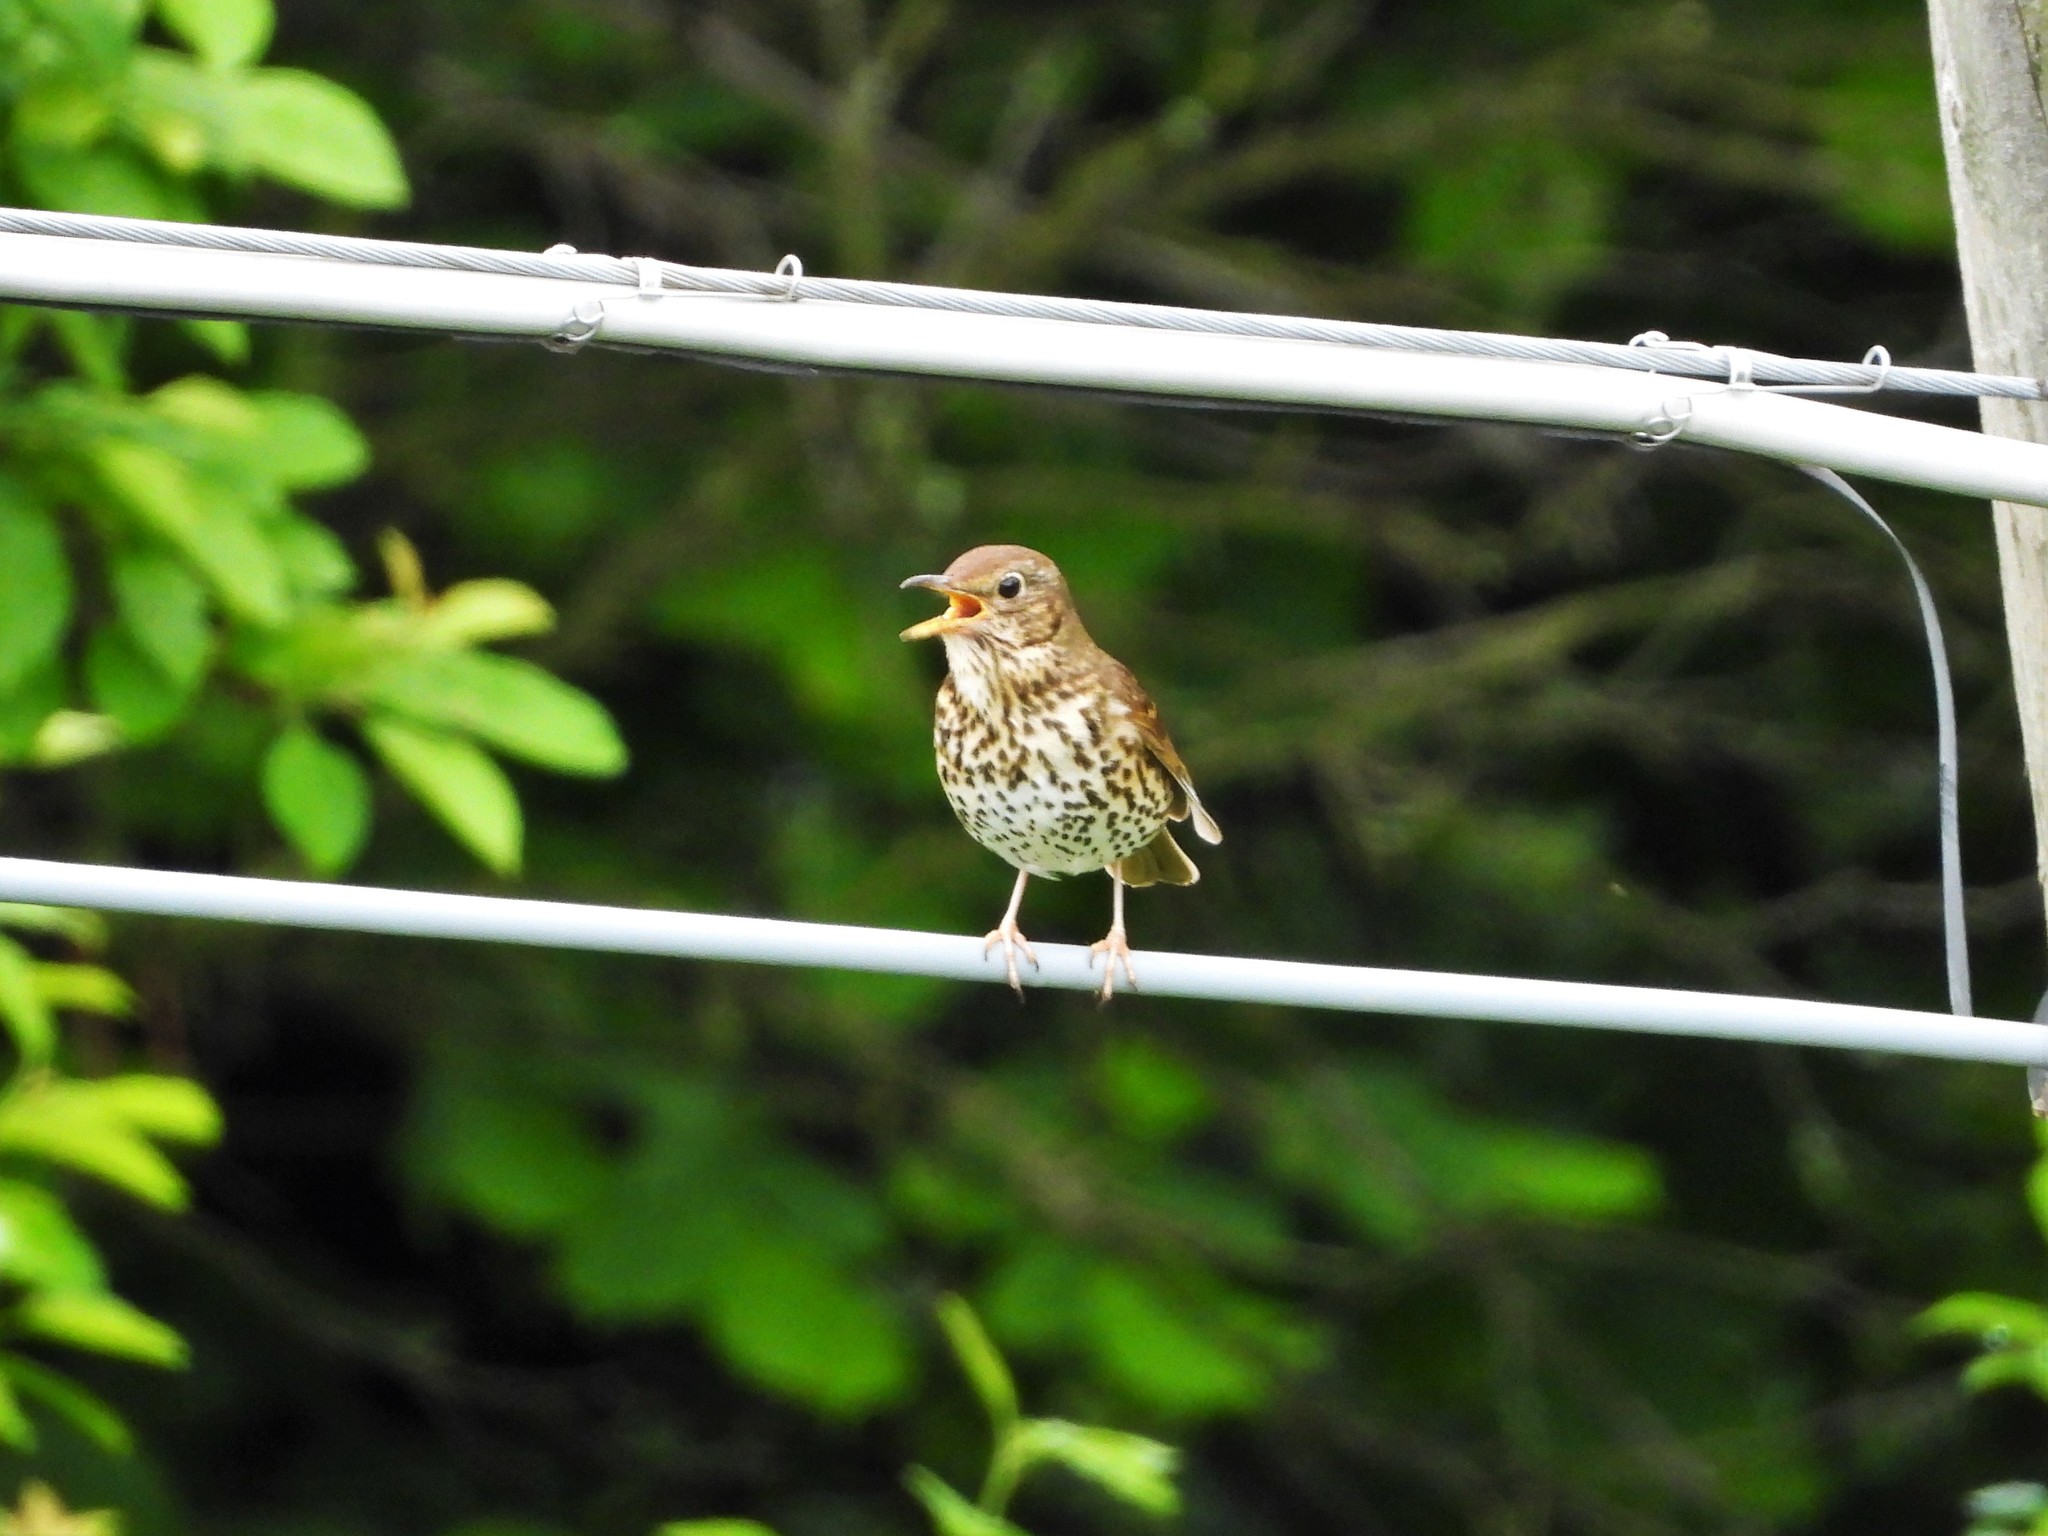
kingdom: Animalia
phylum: Chordata
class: Aves
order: Passeriformes
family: Turdidae
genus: Turdus
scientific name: Turdus philomelos
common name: Song thrush
